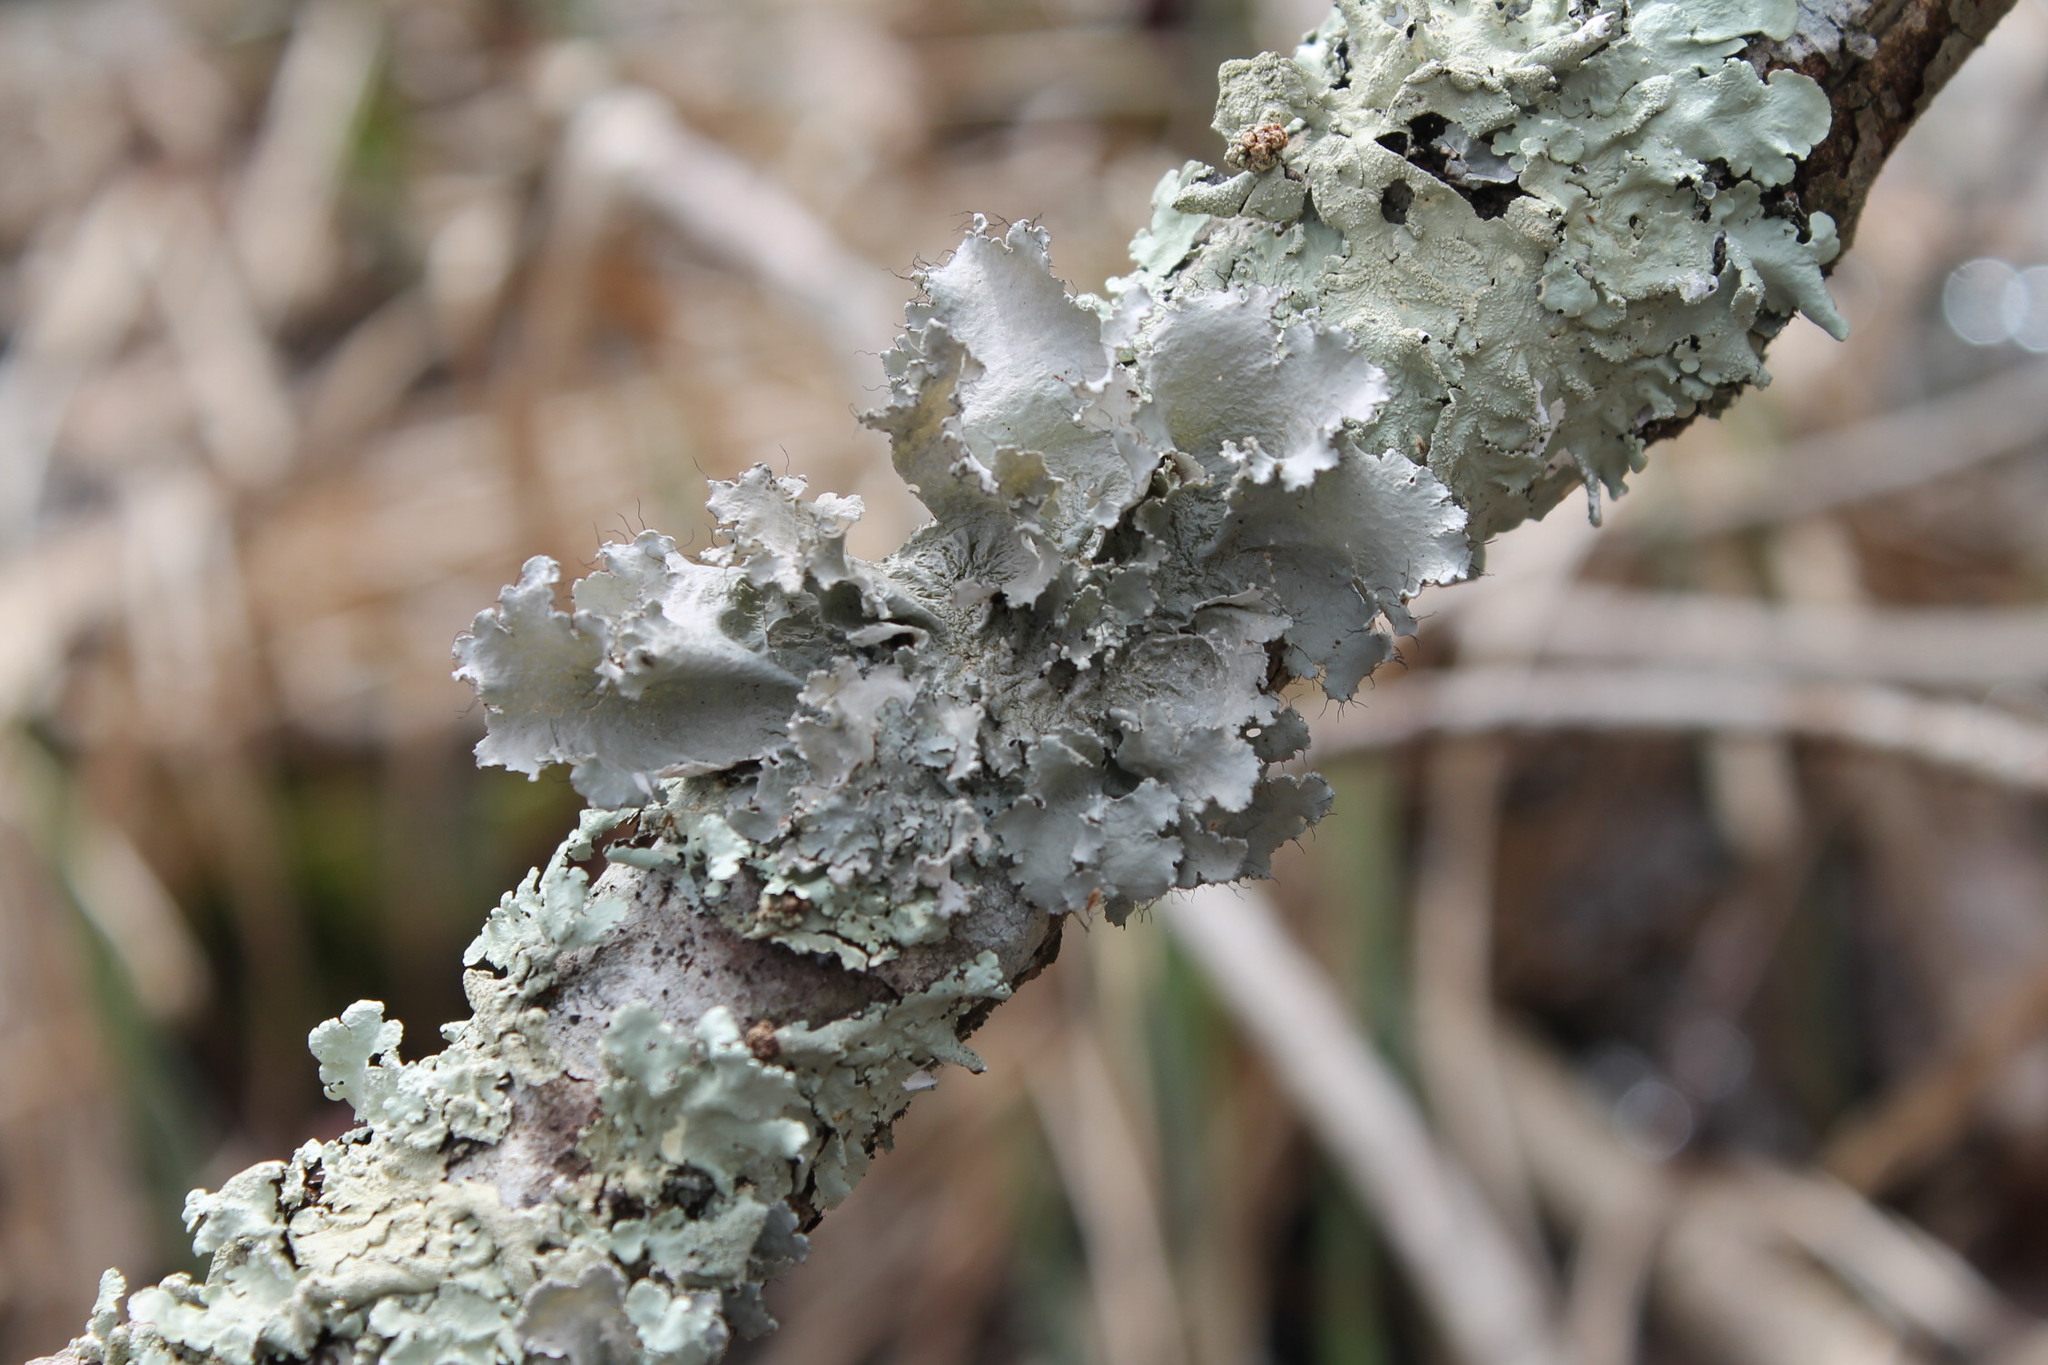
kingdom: Fungi
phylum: Ascomycota
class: Lecanoromycetes
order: Lecanorales
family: Parmeliaceae
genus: Parmotrema
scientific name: Parmotrema hypotropum
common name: Powdered ruffle lichen
